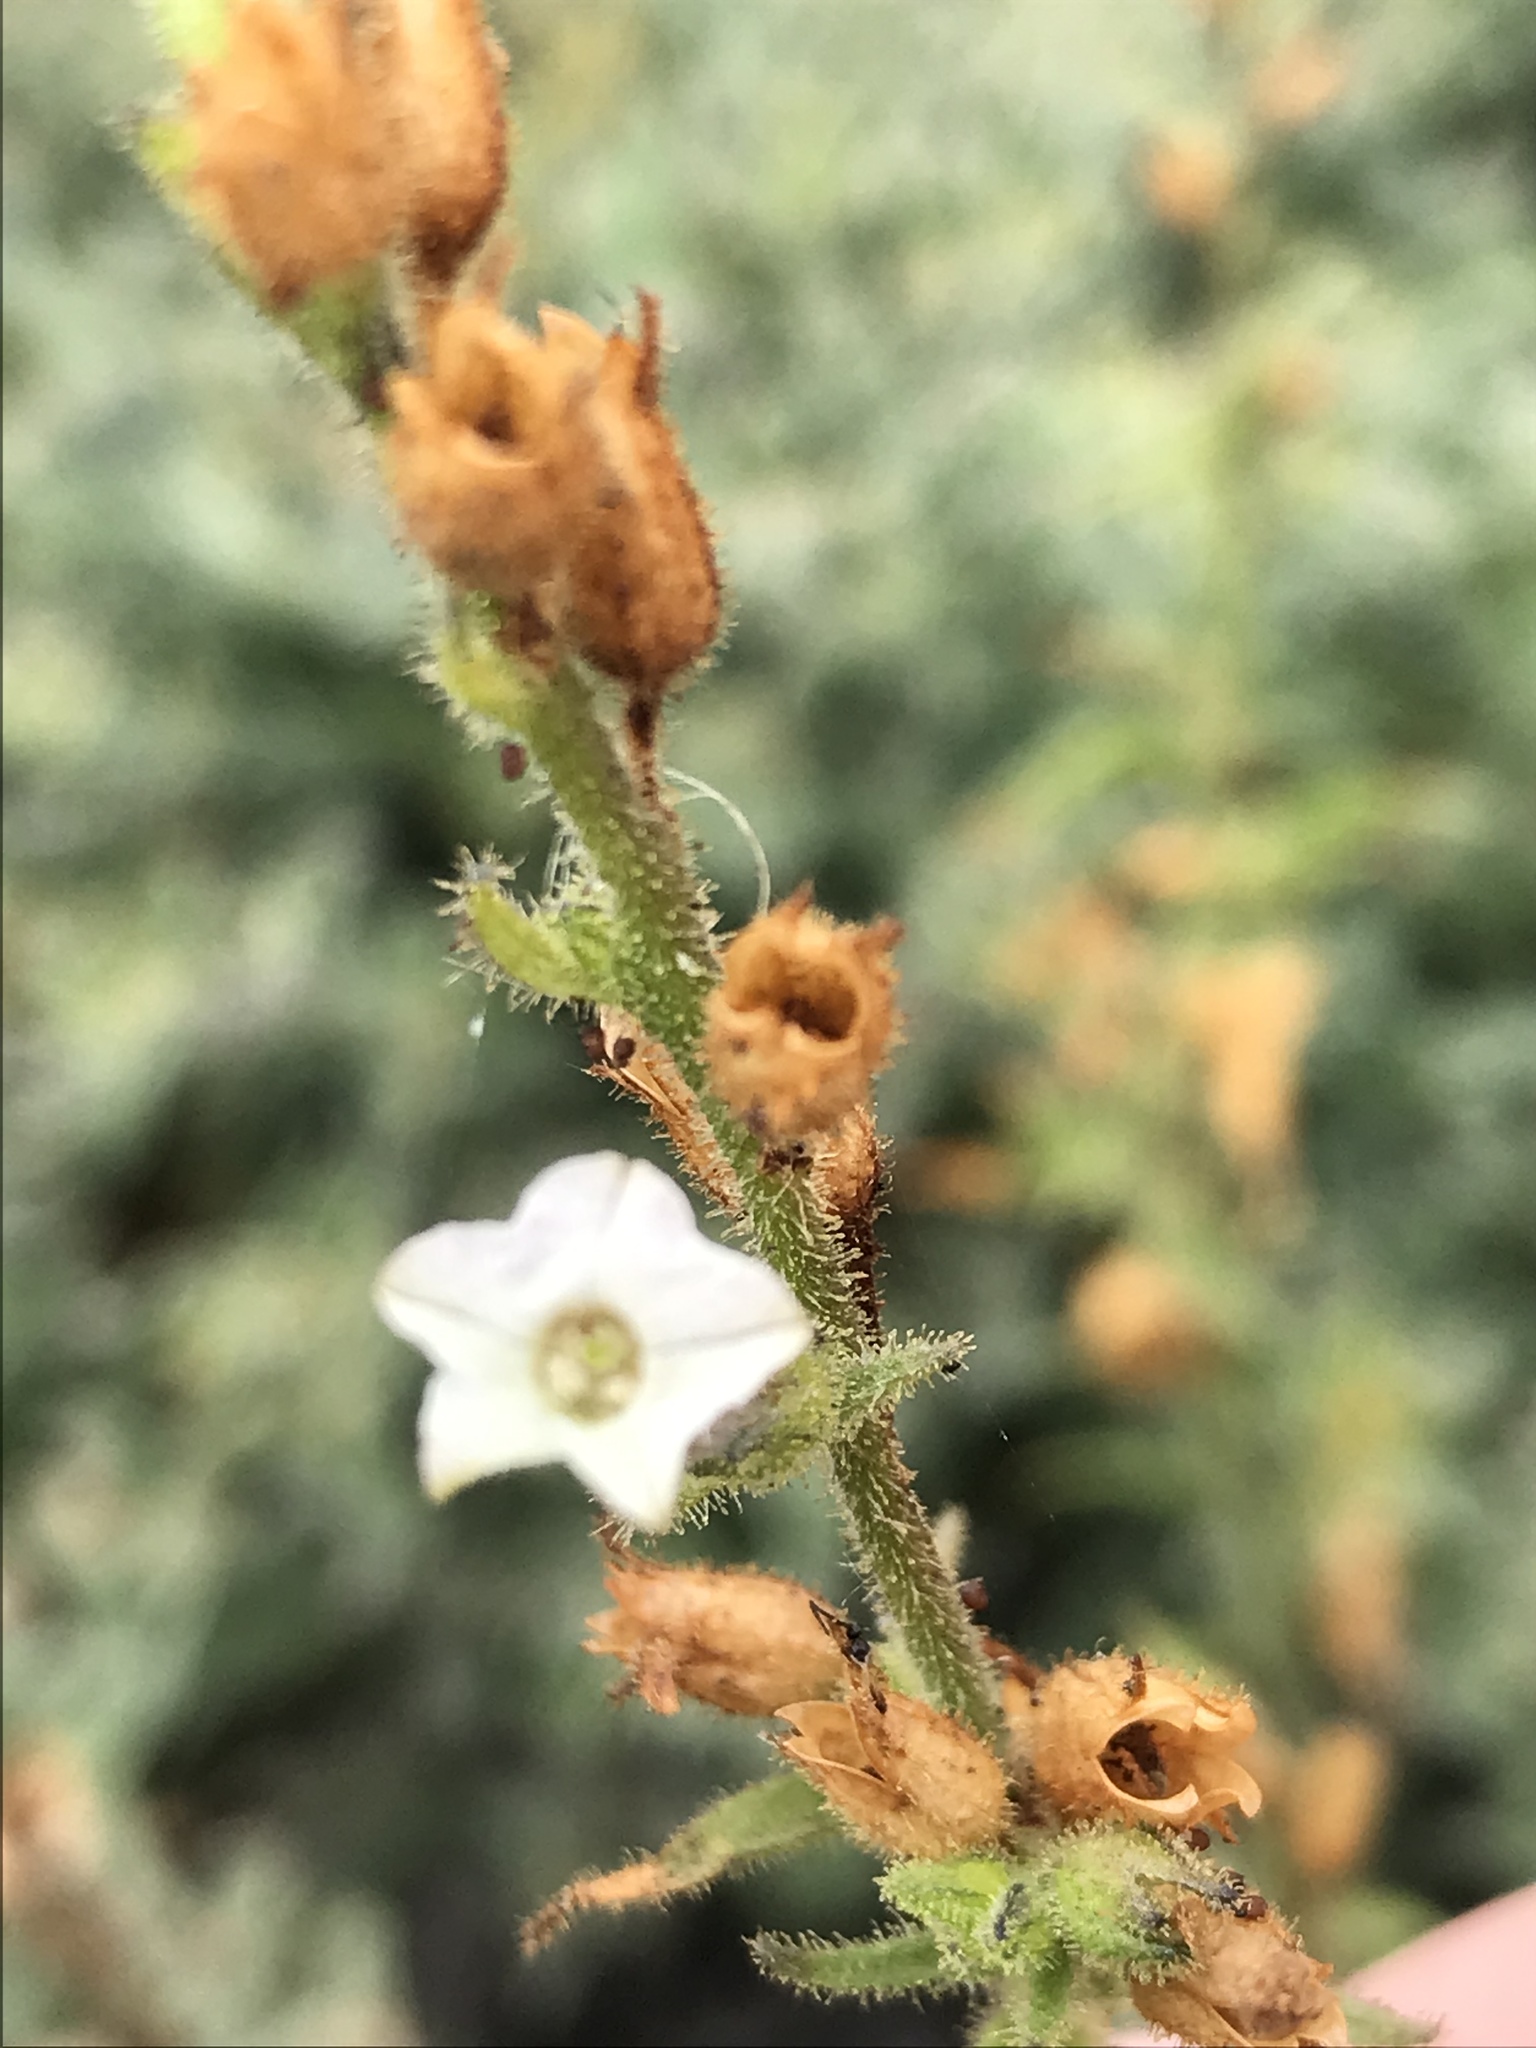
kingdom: Plantae
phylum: Tracheophyta
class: Magnoliopsida
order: Solanales
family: Solanaceae
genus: Nicotiana
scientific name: Nicotiana clevelandii
